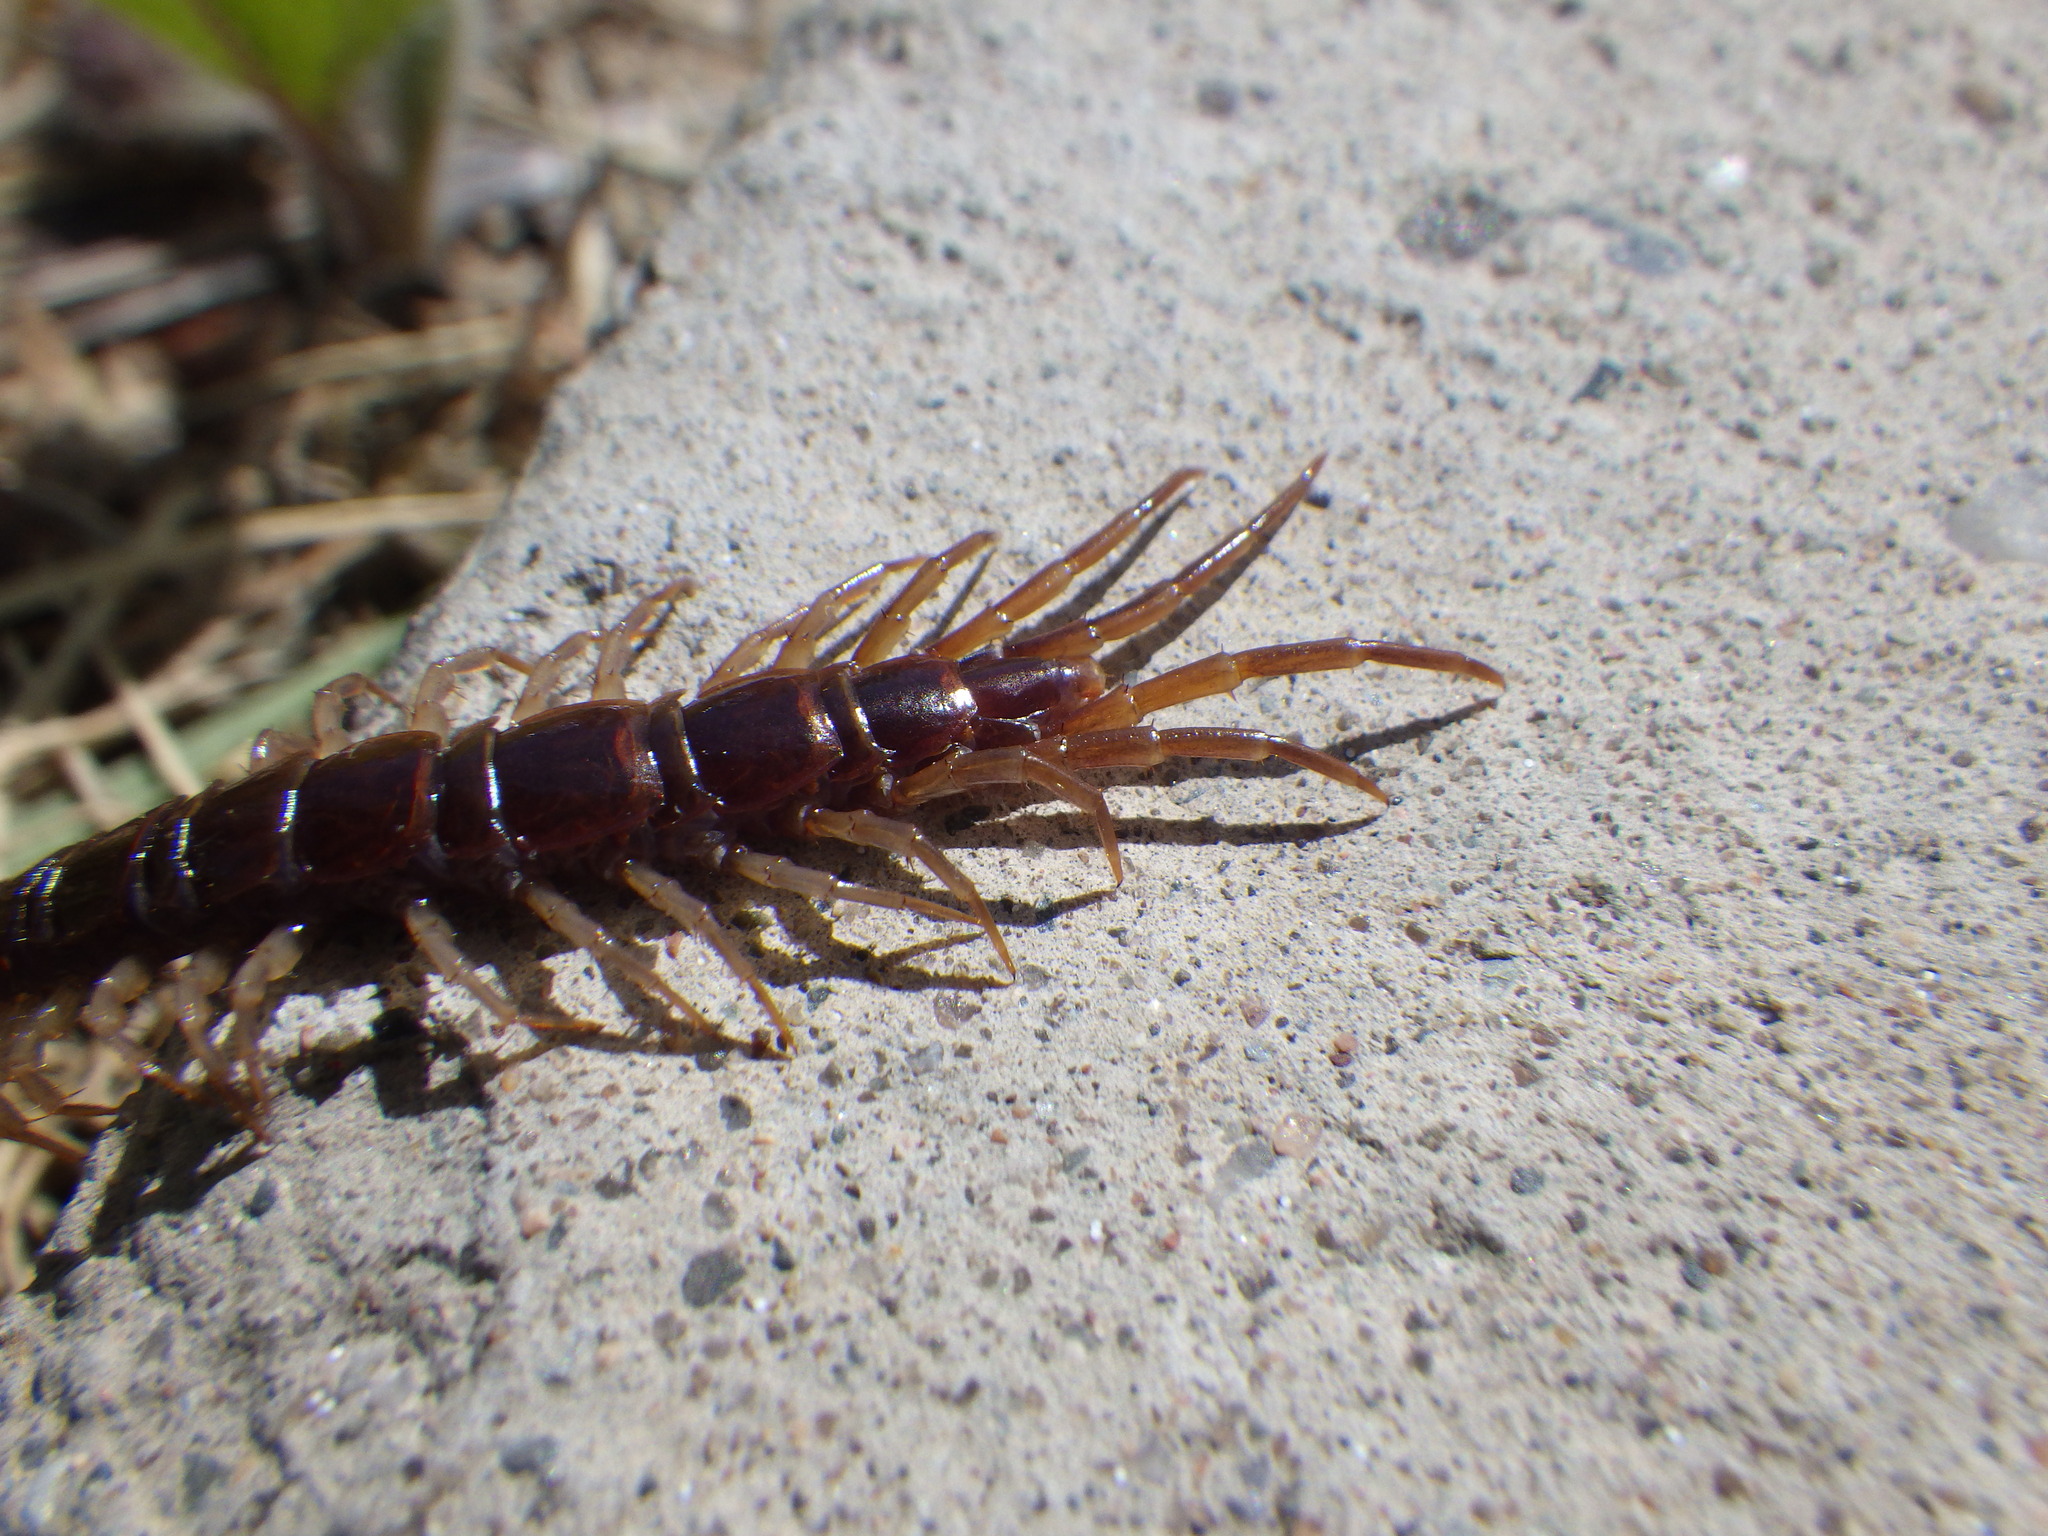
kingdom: Animalia
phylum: Arthropoda
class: Chilopoda
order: Lithobiomorpha
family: Lithobiidae
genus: Lithobius
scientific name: Lithobius forficatus
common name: Centipede
